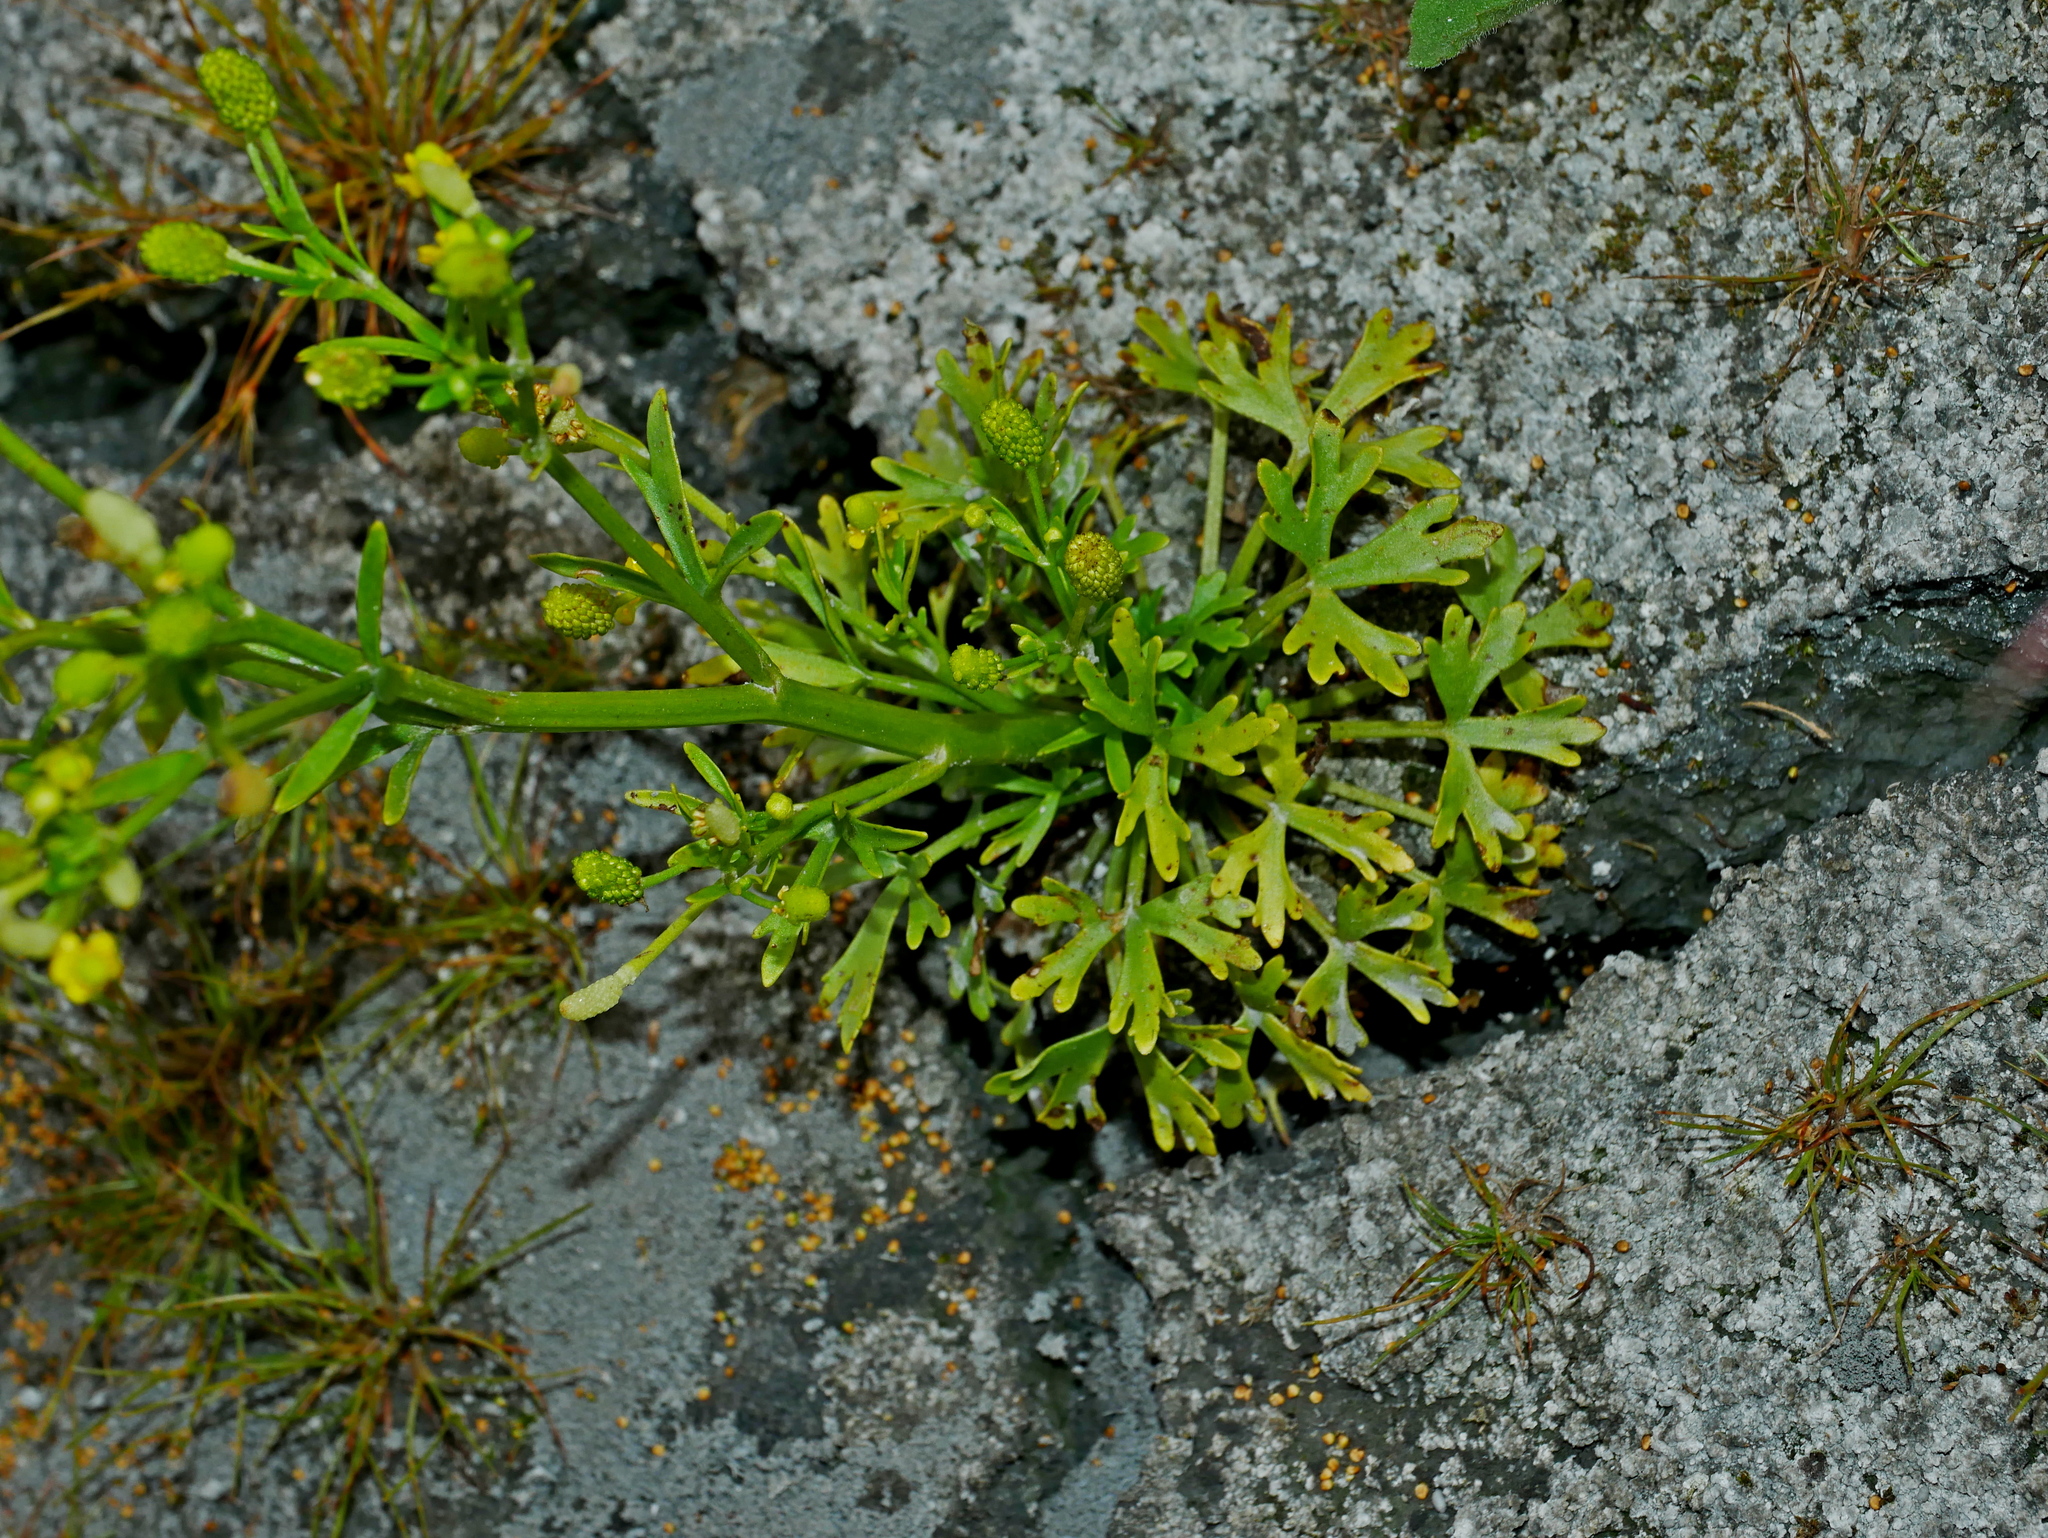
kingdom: Plantae
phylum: Tracheophyta
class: Magnoliopsida
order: Ranunculales
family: Ranunculaceae
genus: Ranunculus
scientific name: Ranunculus sceleratus
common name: Celery-leaved buttercup
